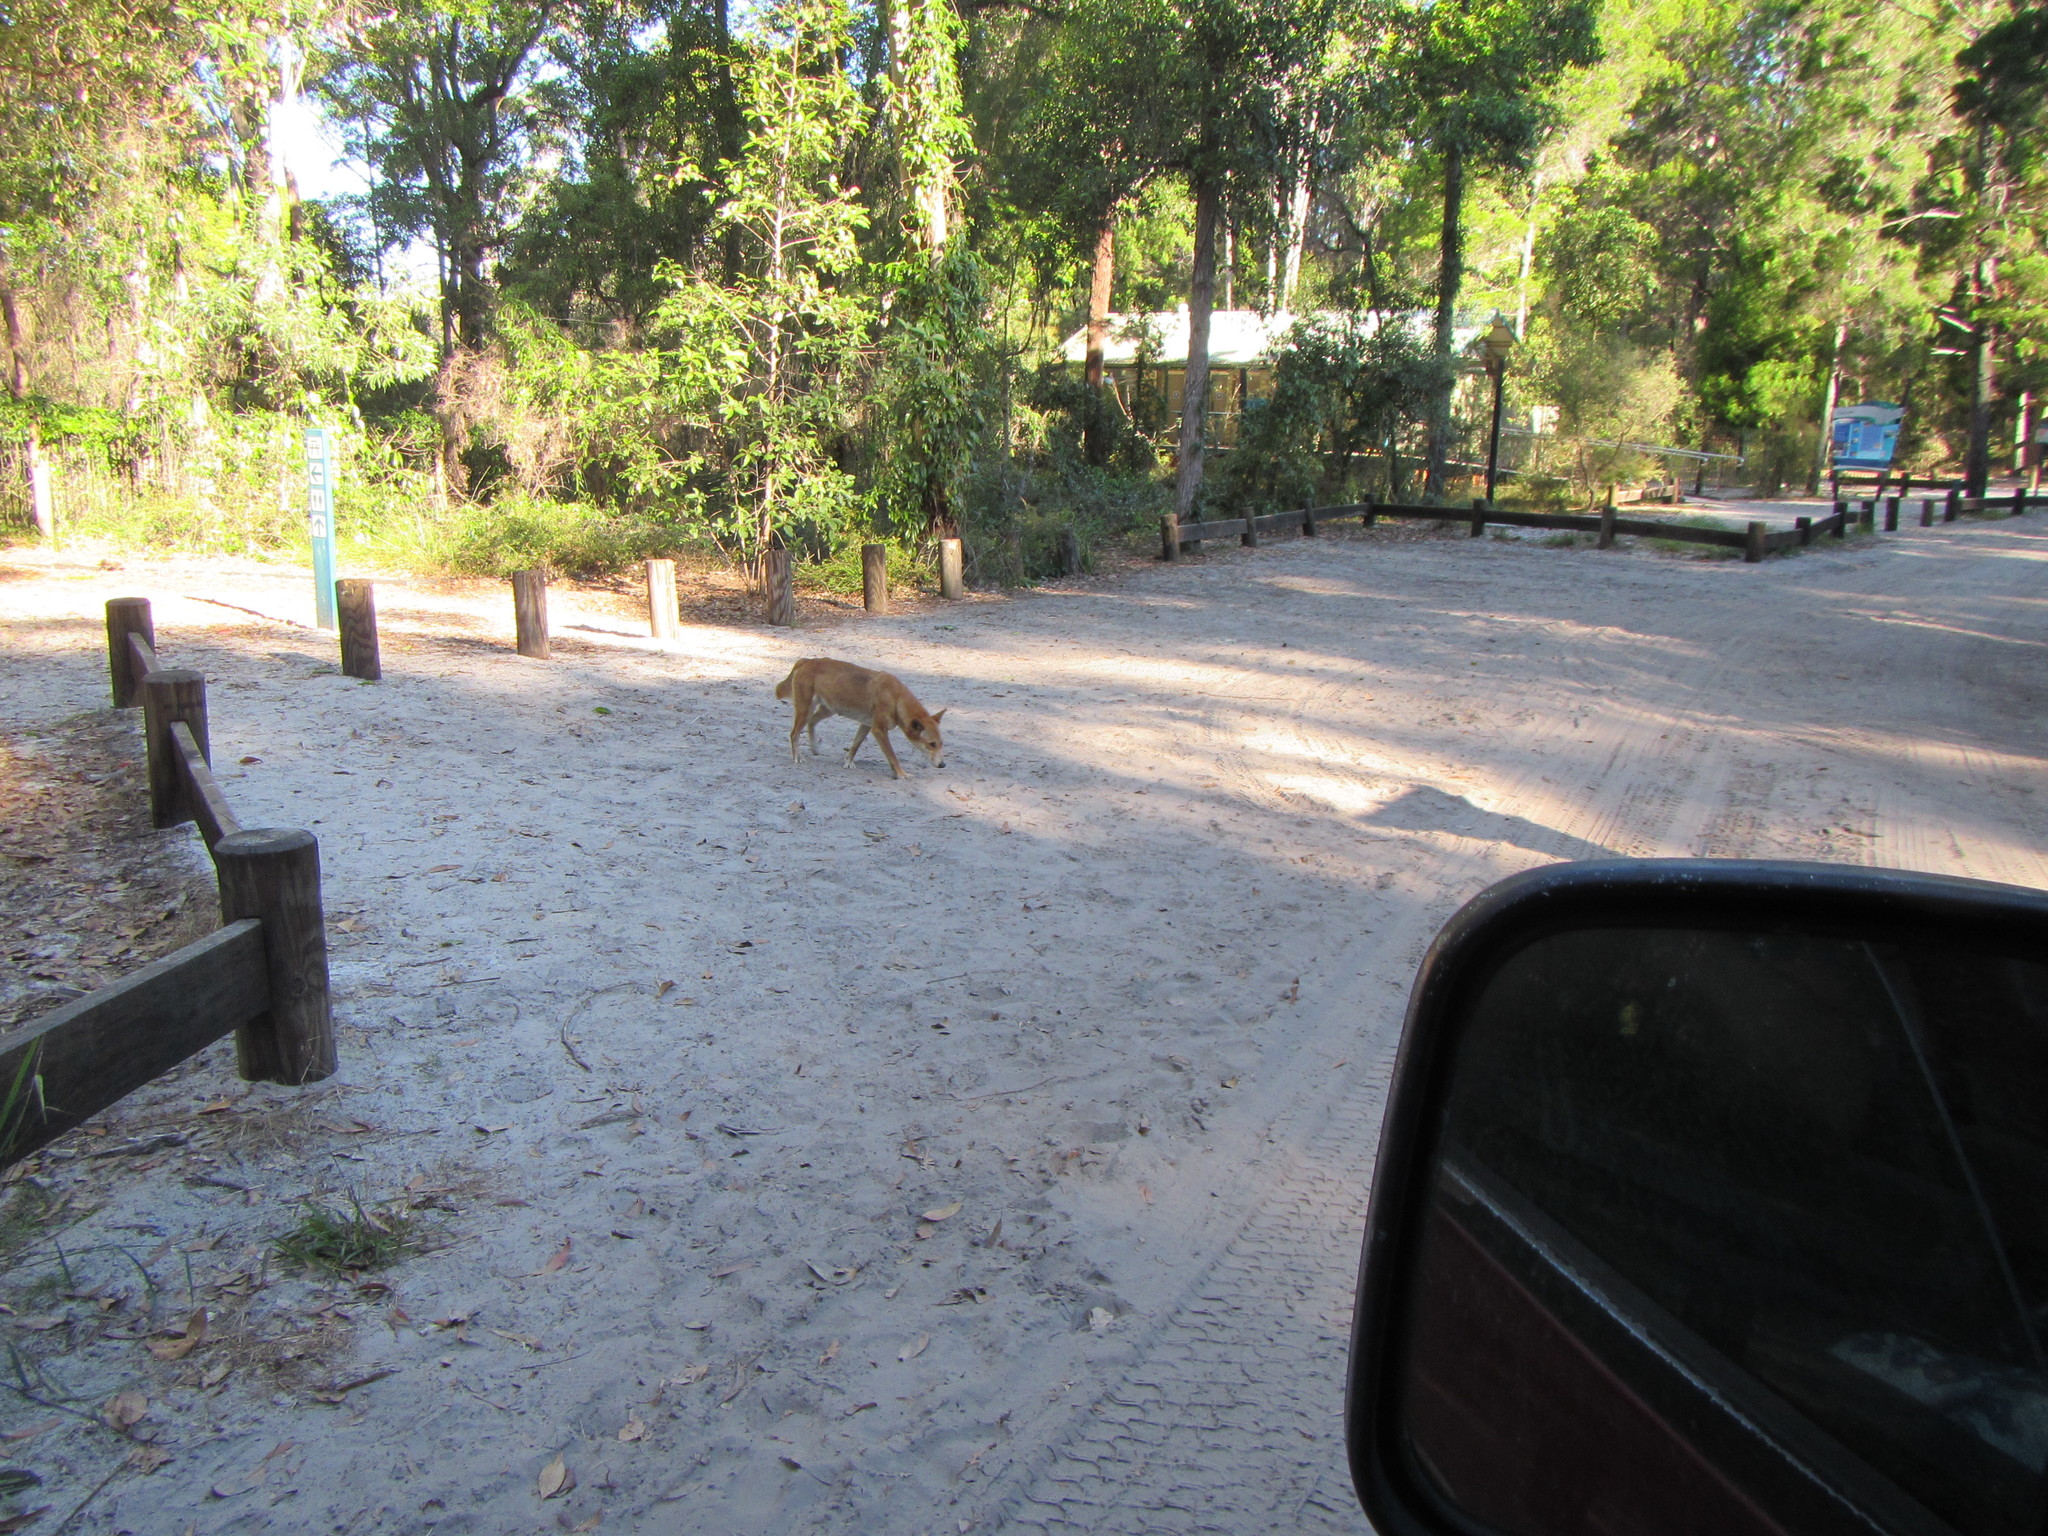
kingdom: Animalia
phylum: Chordata
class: Mammalia
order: Carnivora
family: Canidae
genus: Canis
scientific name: Canis lupus
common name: Gray wolf
